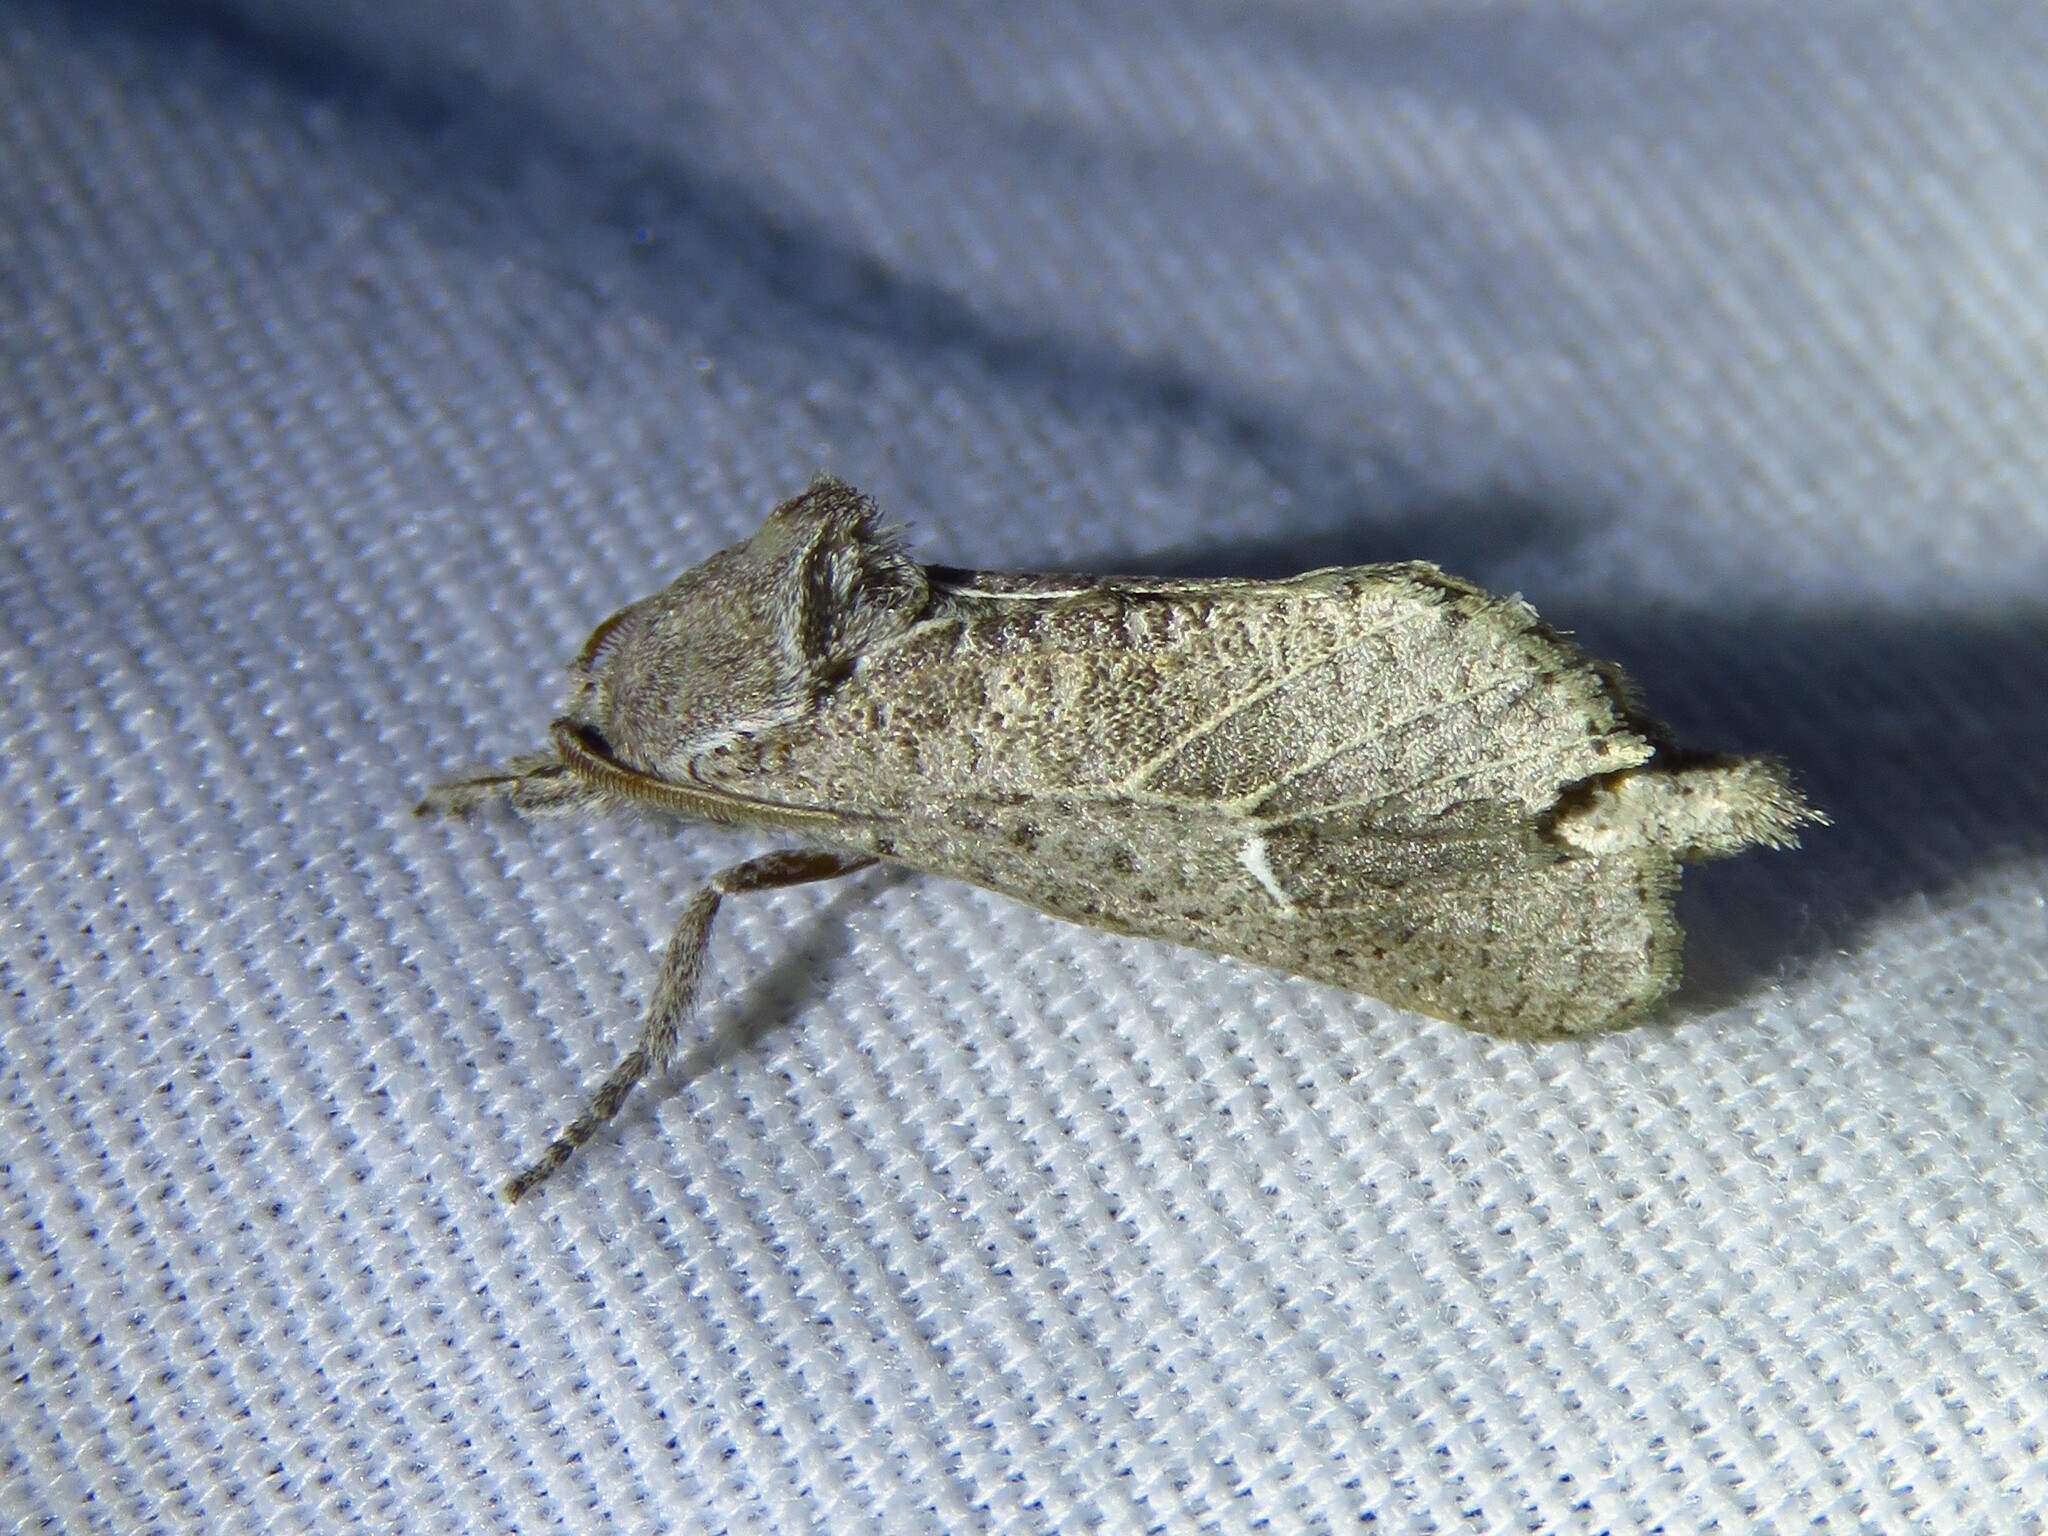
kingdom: Animalia
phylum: Arthropoda
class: Insecta
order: Lepidoptera
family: Cossidae
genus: Givira
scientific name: Givira anna
